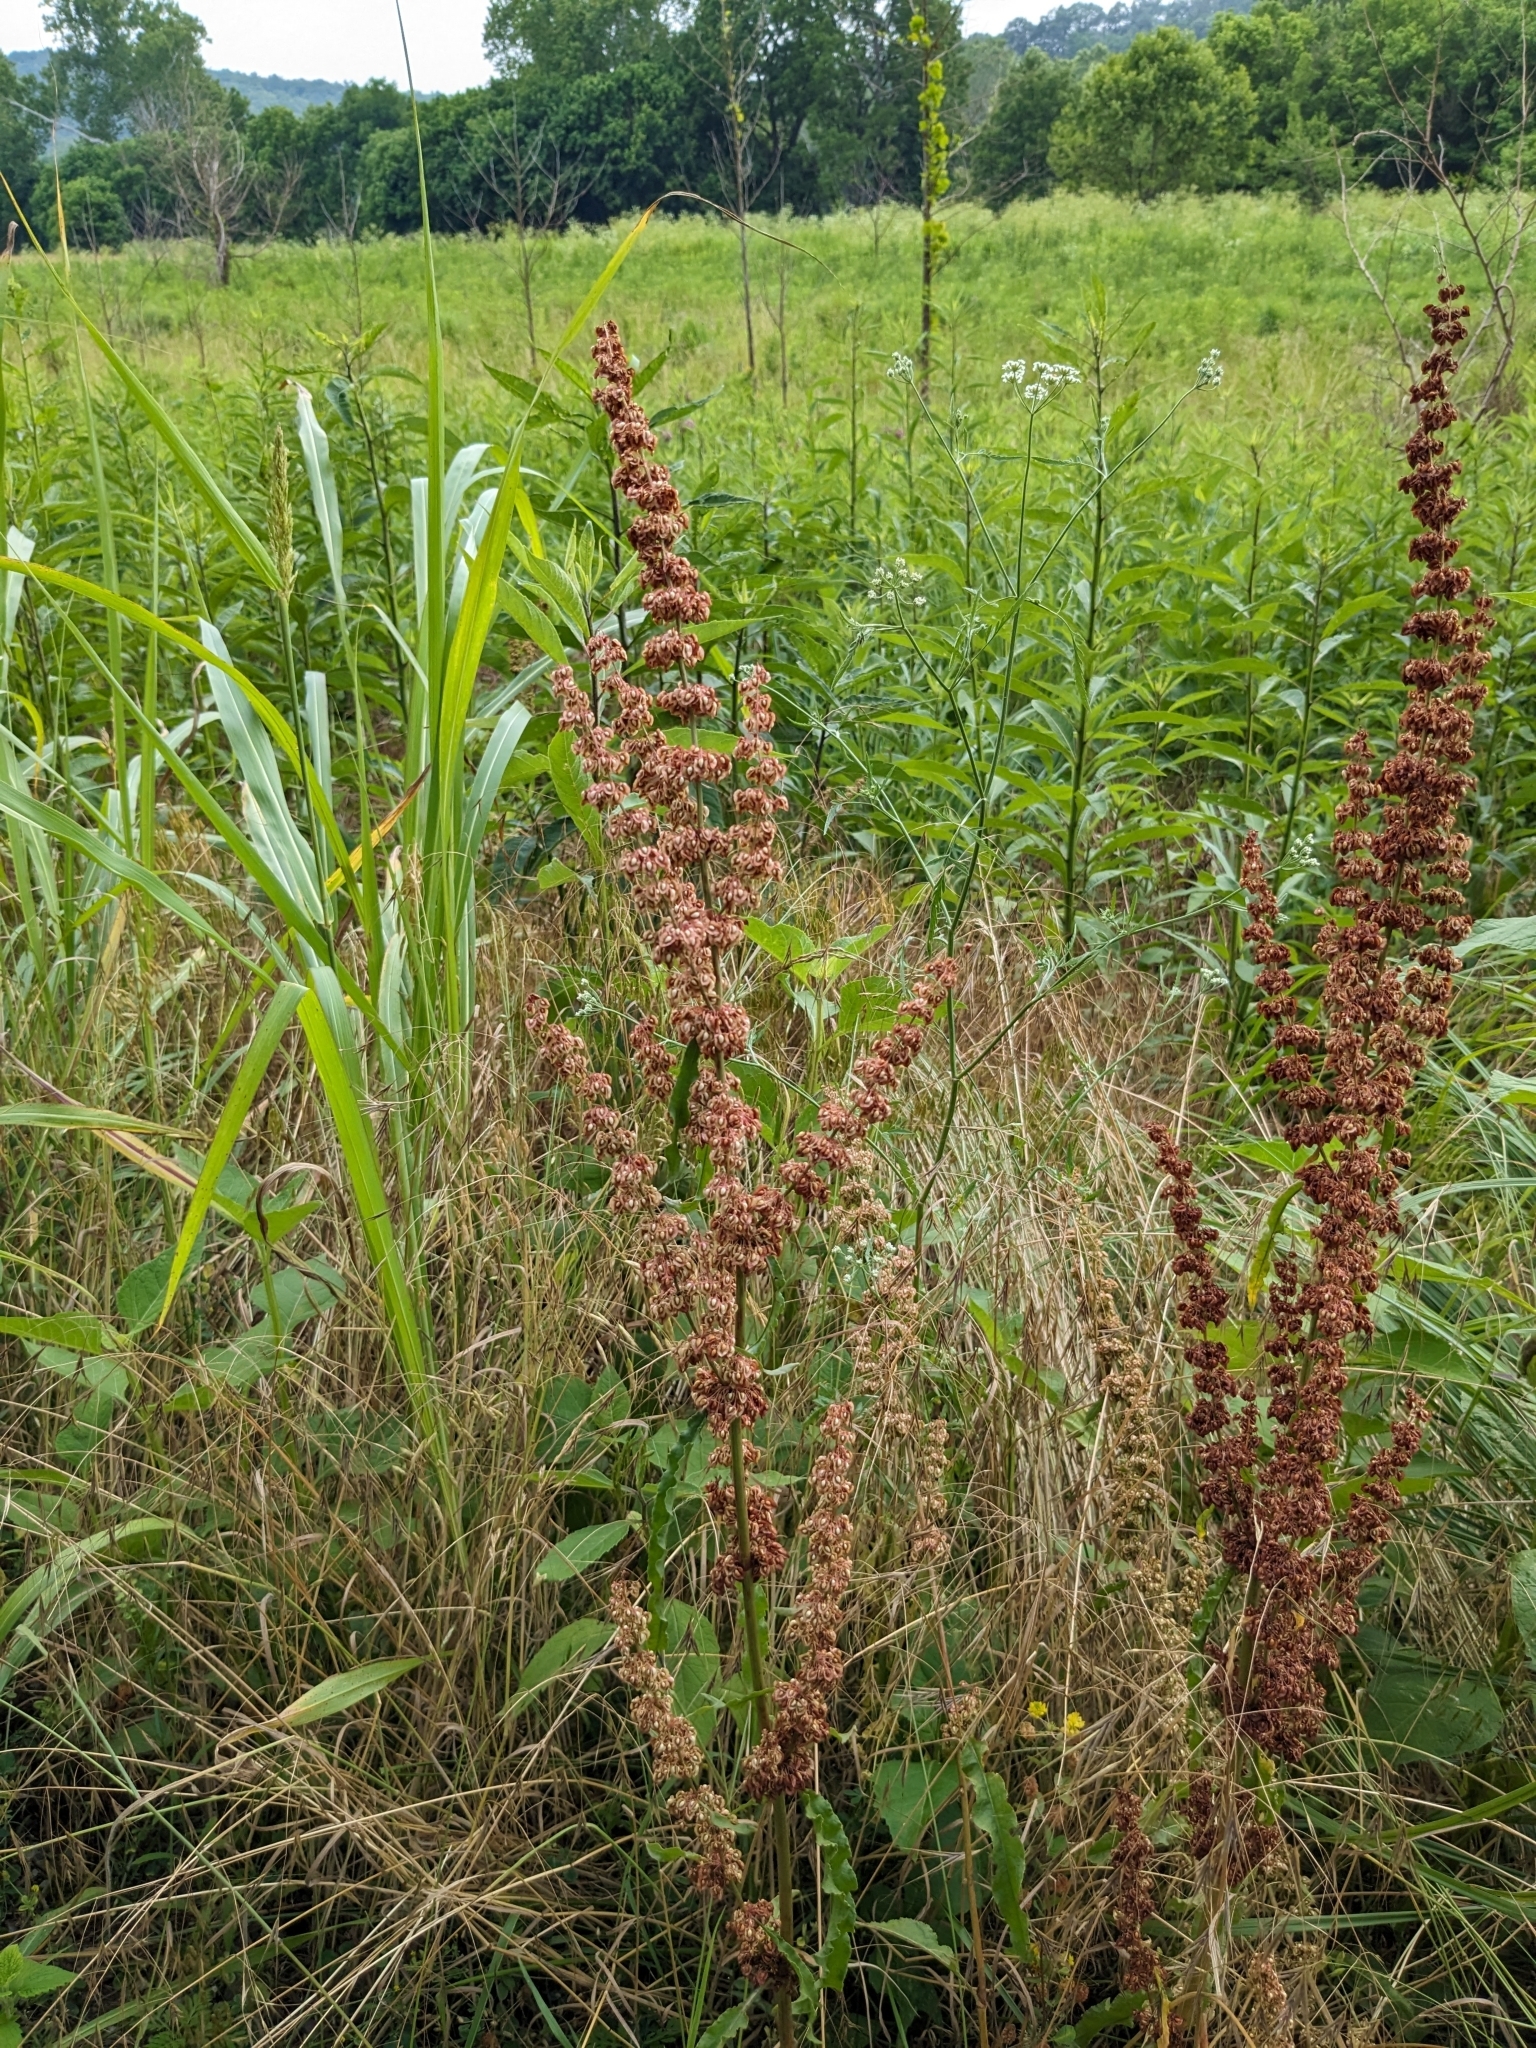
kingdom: Plantae
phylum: Tracheophyta
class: Magnoliopsida
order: Caryophyllales
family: Polygonaceae
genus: Rumex
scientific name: Rumex crispus
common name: Curled dock
